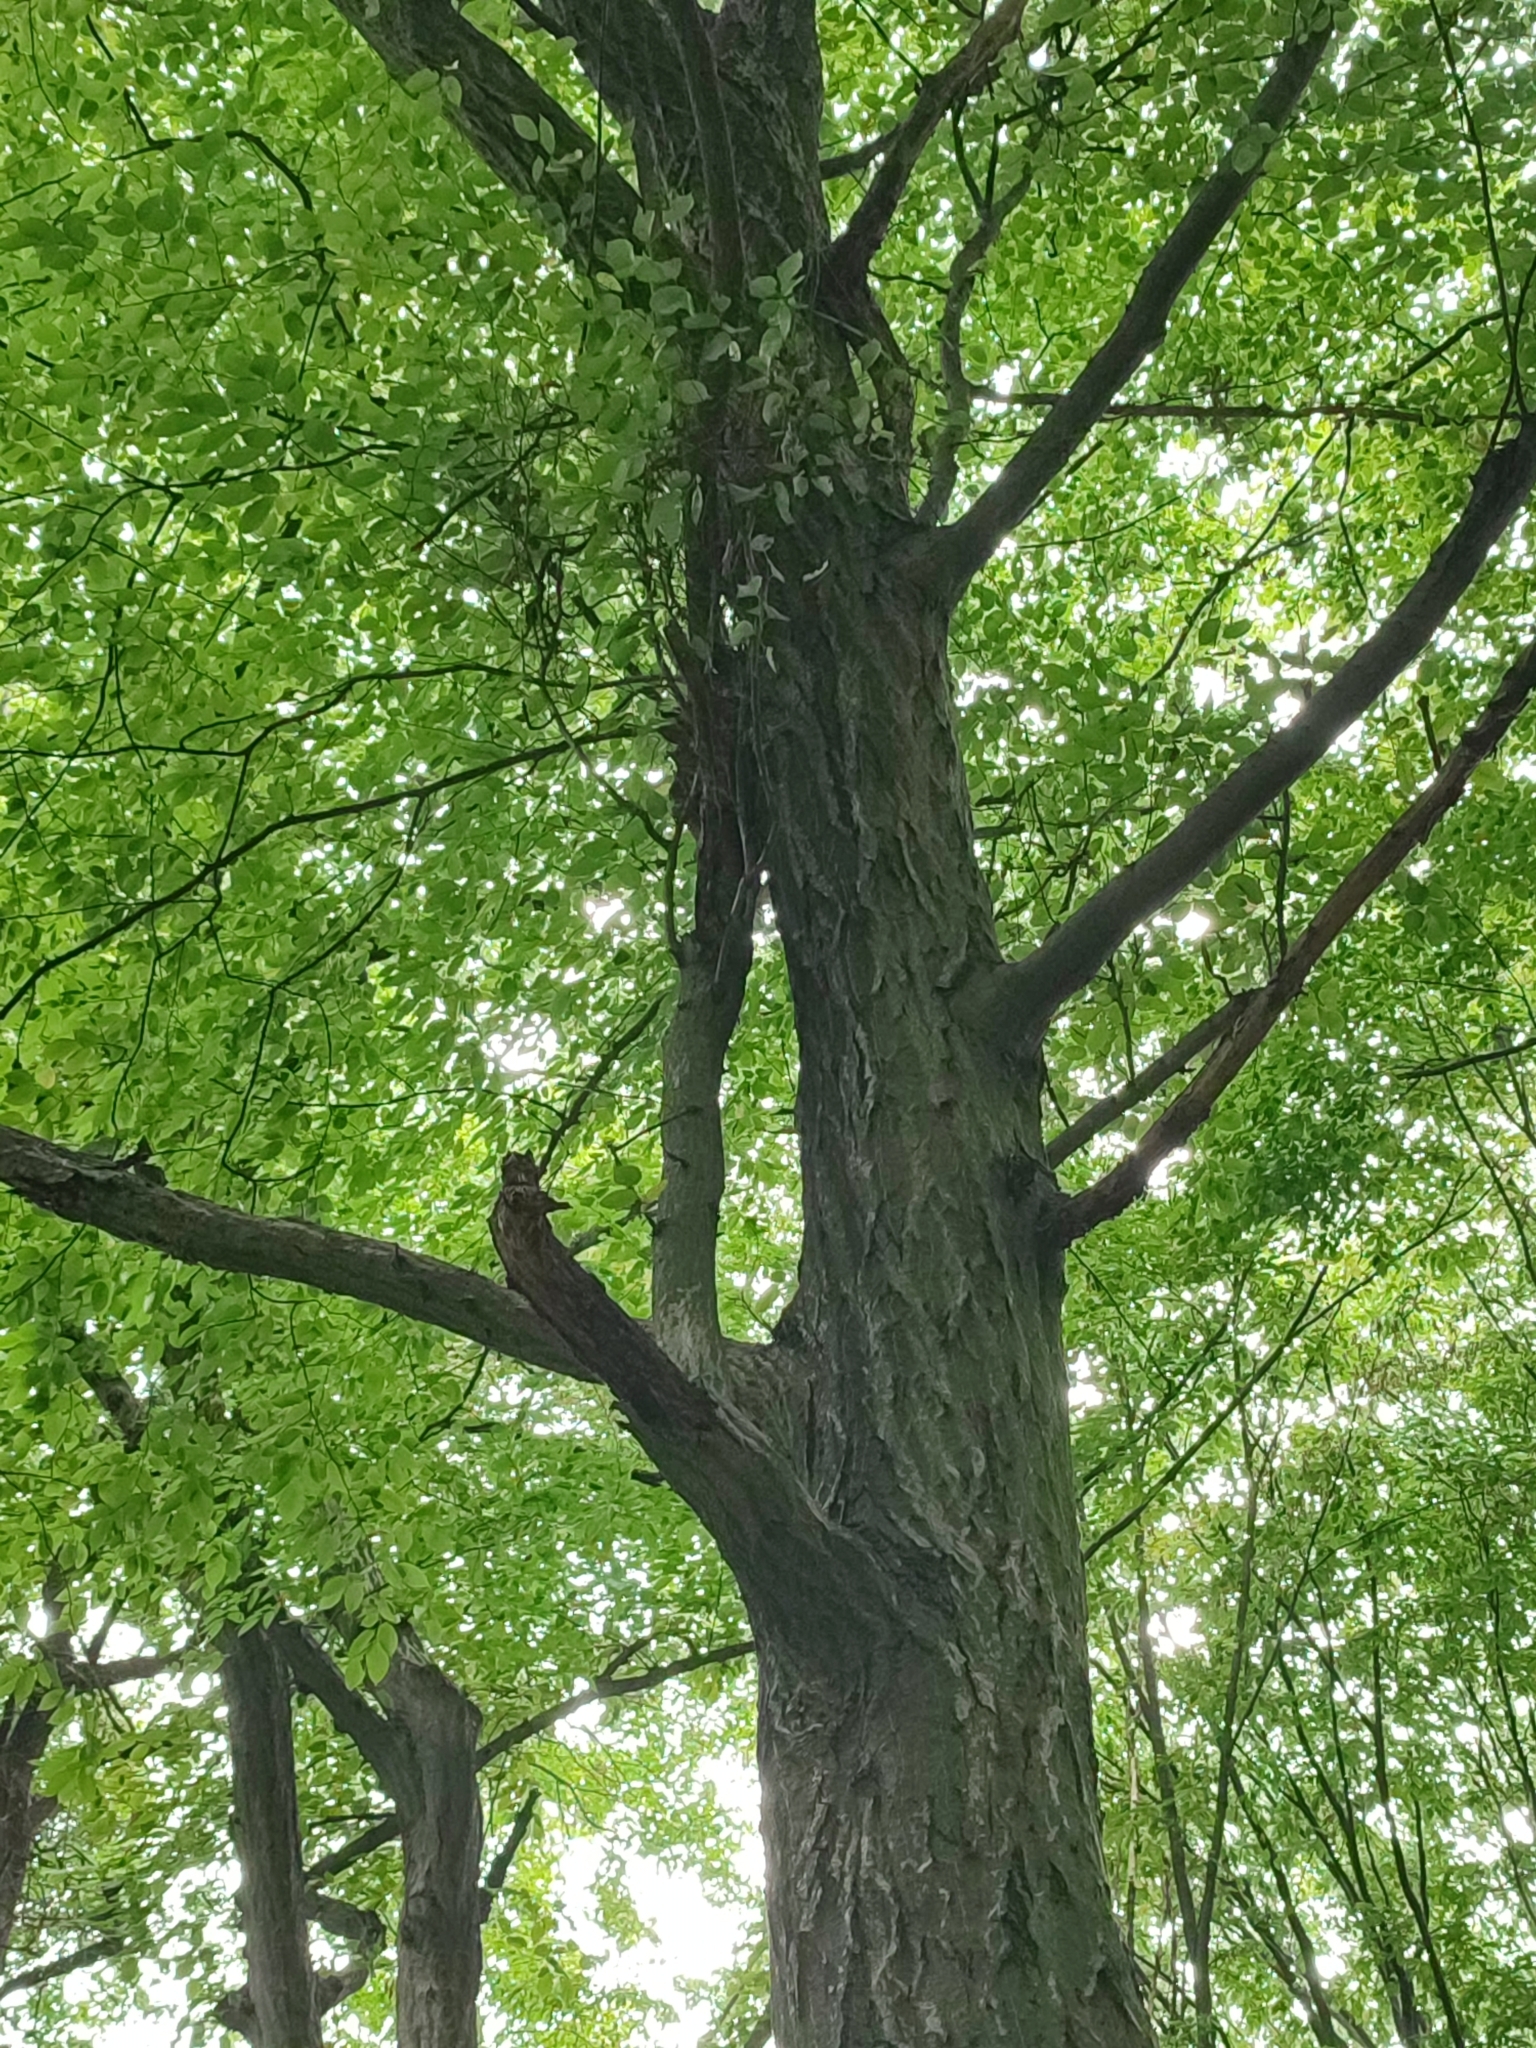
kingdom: Plantae
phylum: Tracheophyta
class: Magnoliopsida
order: Fagales
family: Betulaceae
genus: Carpinus
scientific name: Carpinus betulus
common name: Hornbeam
